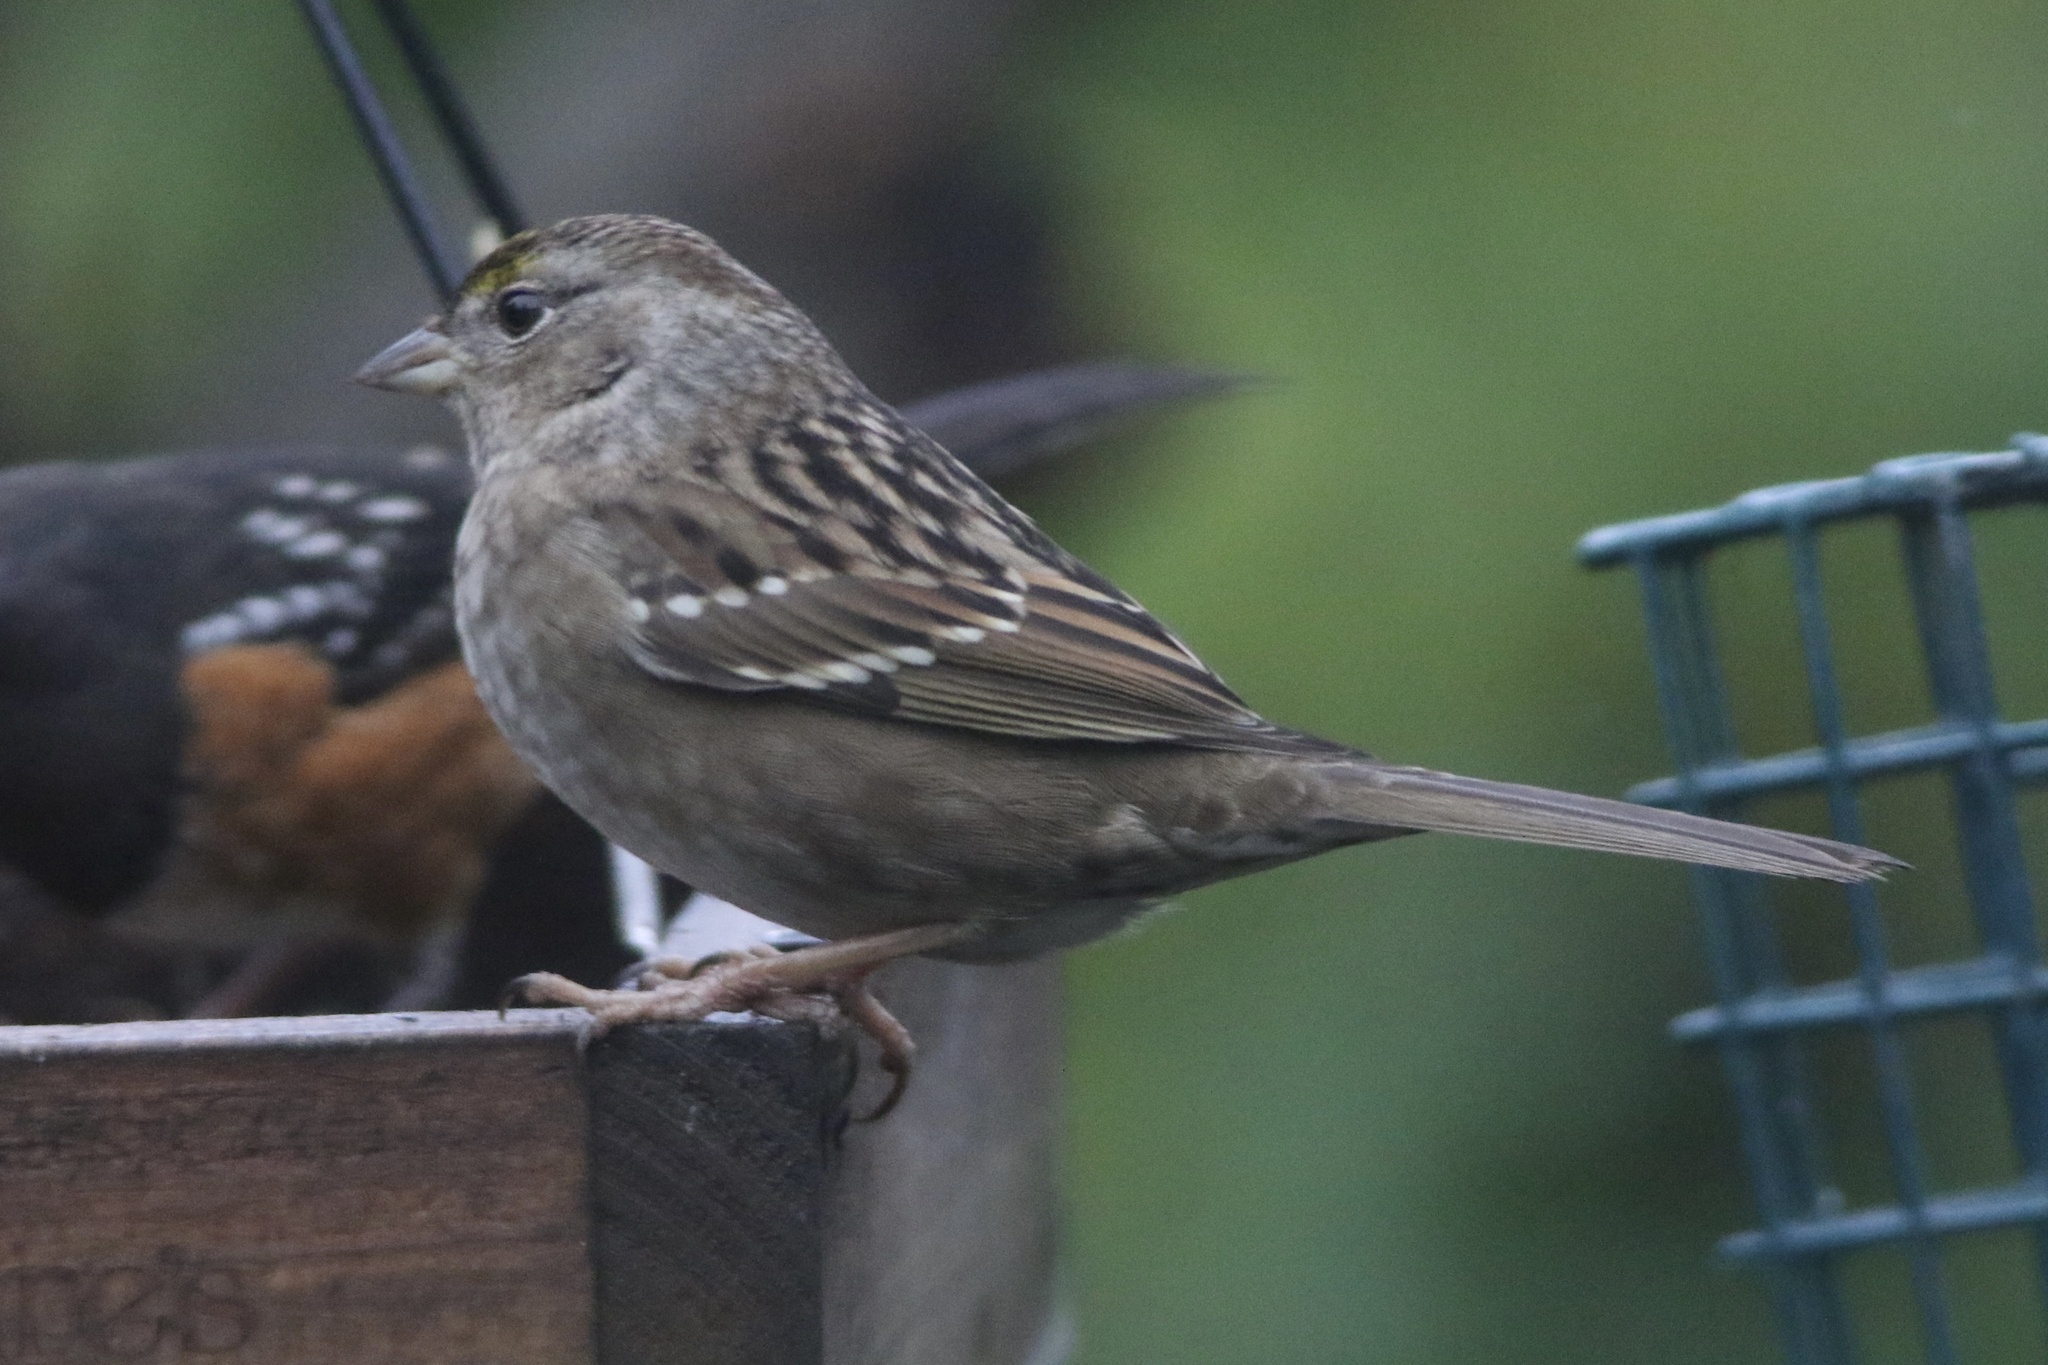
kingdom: Animalia
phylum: Chordata
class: Aves
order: Passeriformes
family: Passerellidae
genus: Zonotrichia
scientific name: Zonotrichia atricapilla
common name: Golden-crowned sparrow
